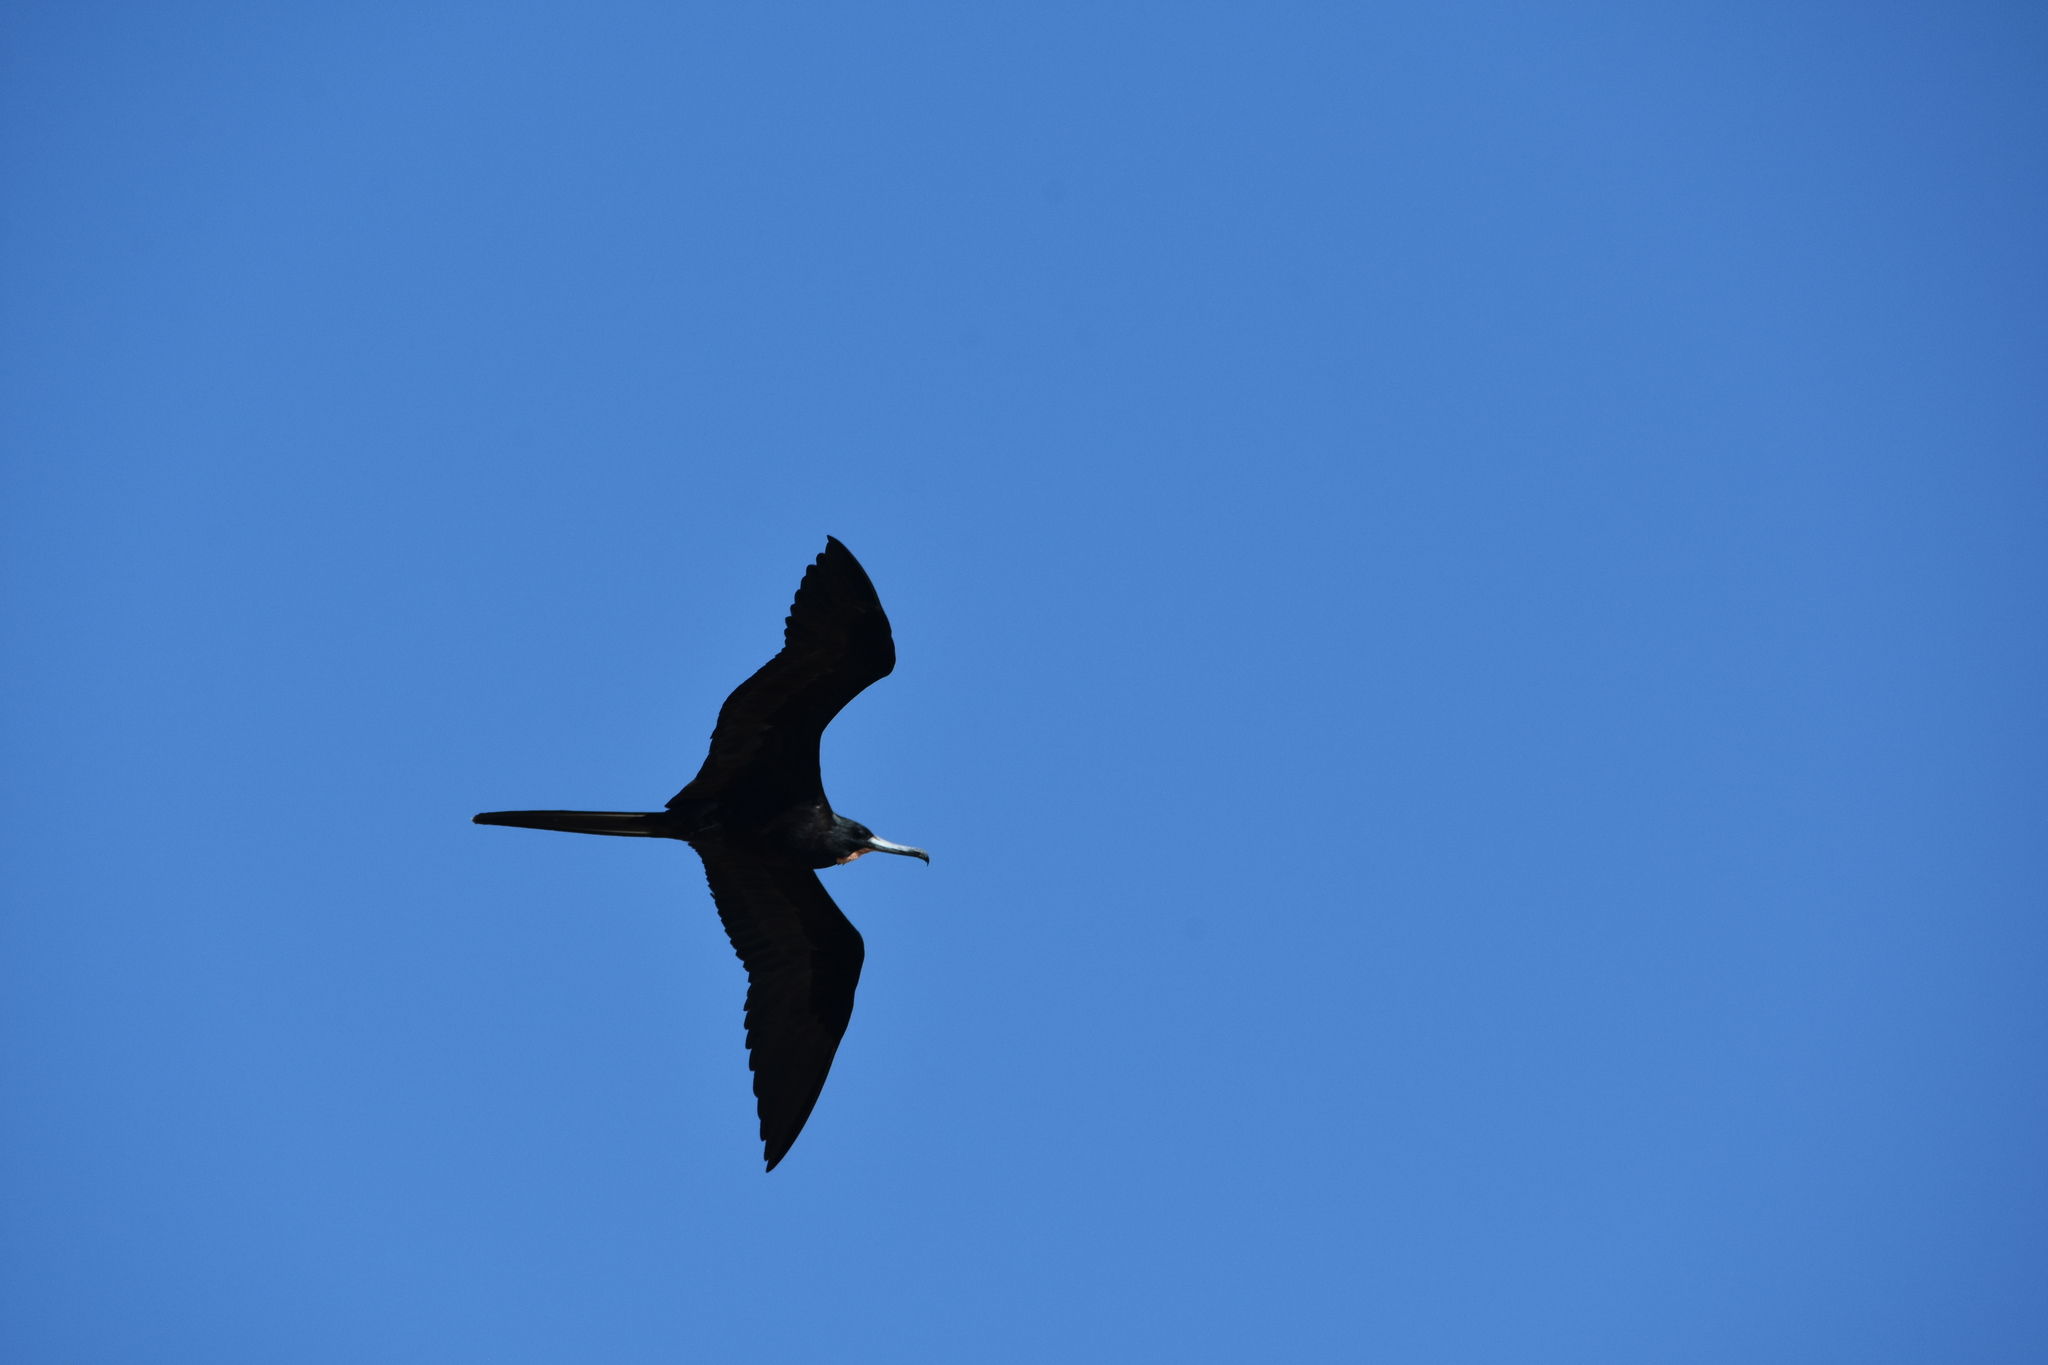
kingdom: Animalia
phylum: Chordata
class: Aves
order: Suliformes
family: Fregatidae
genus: Fregata
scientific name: Fregata magnificens
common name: Magnificent frigatebird
